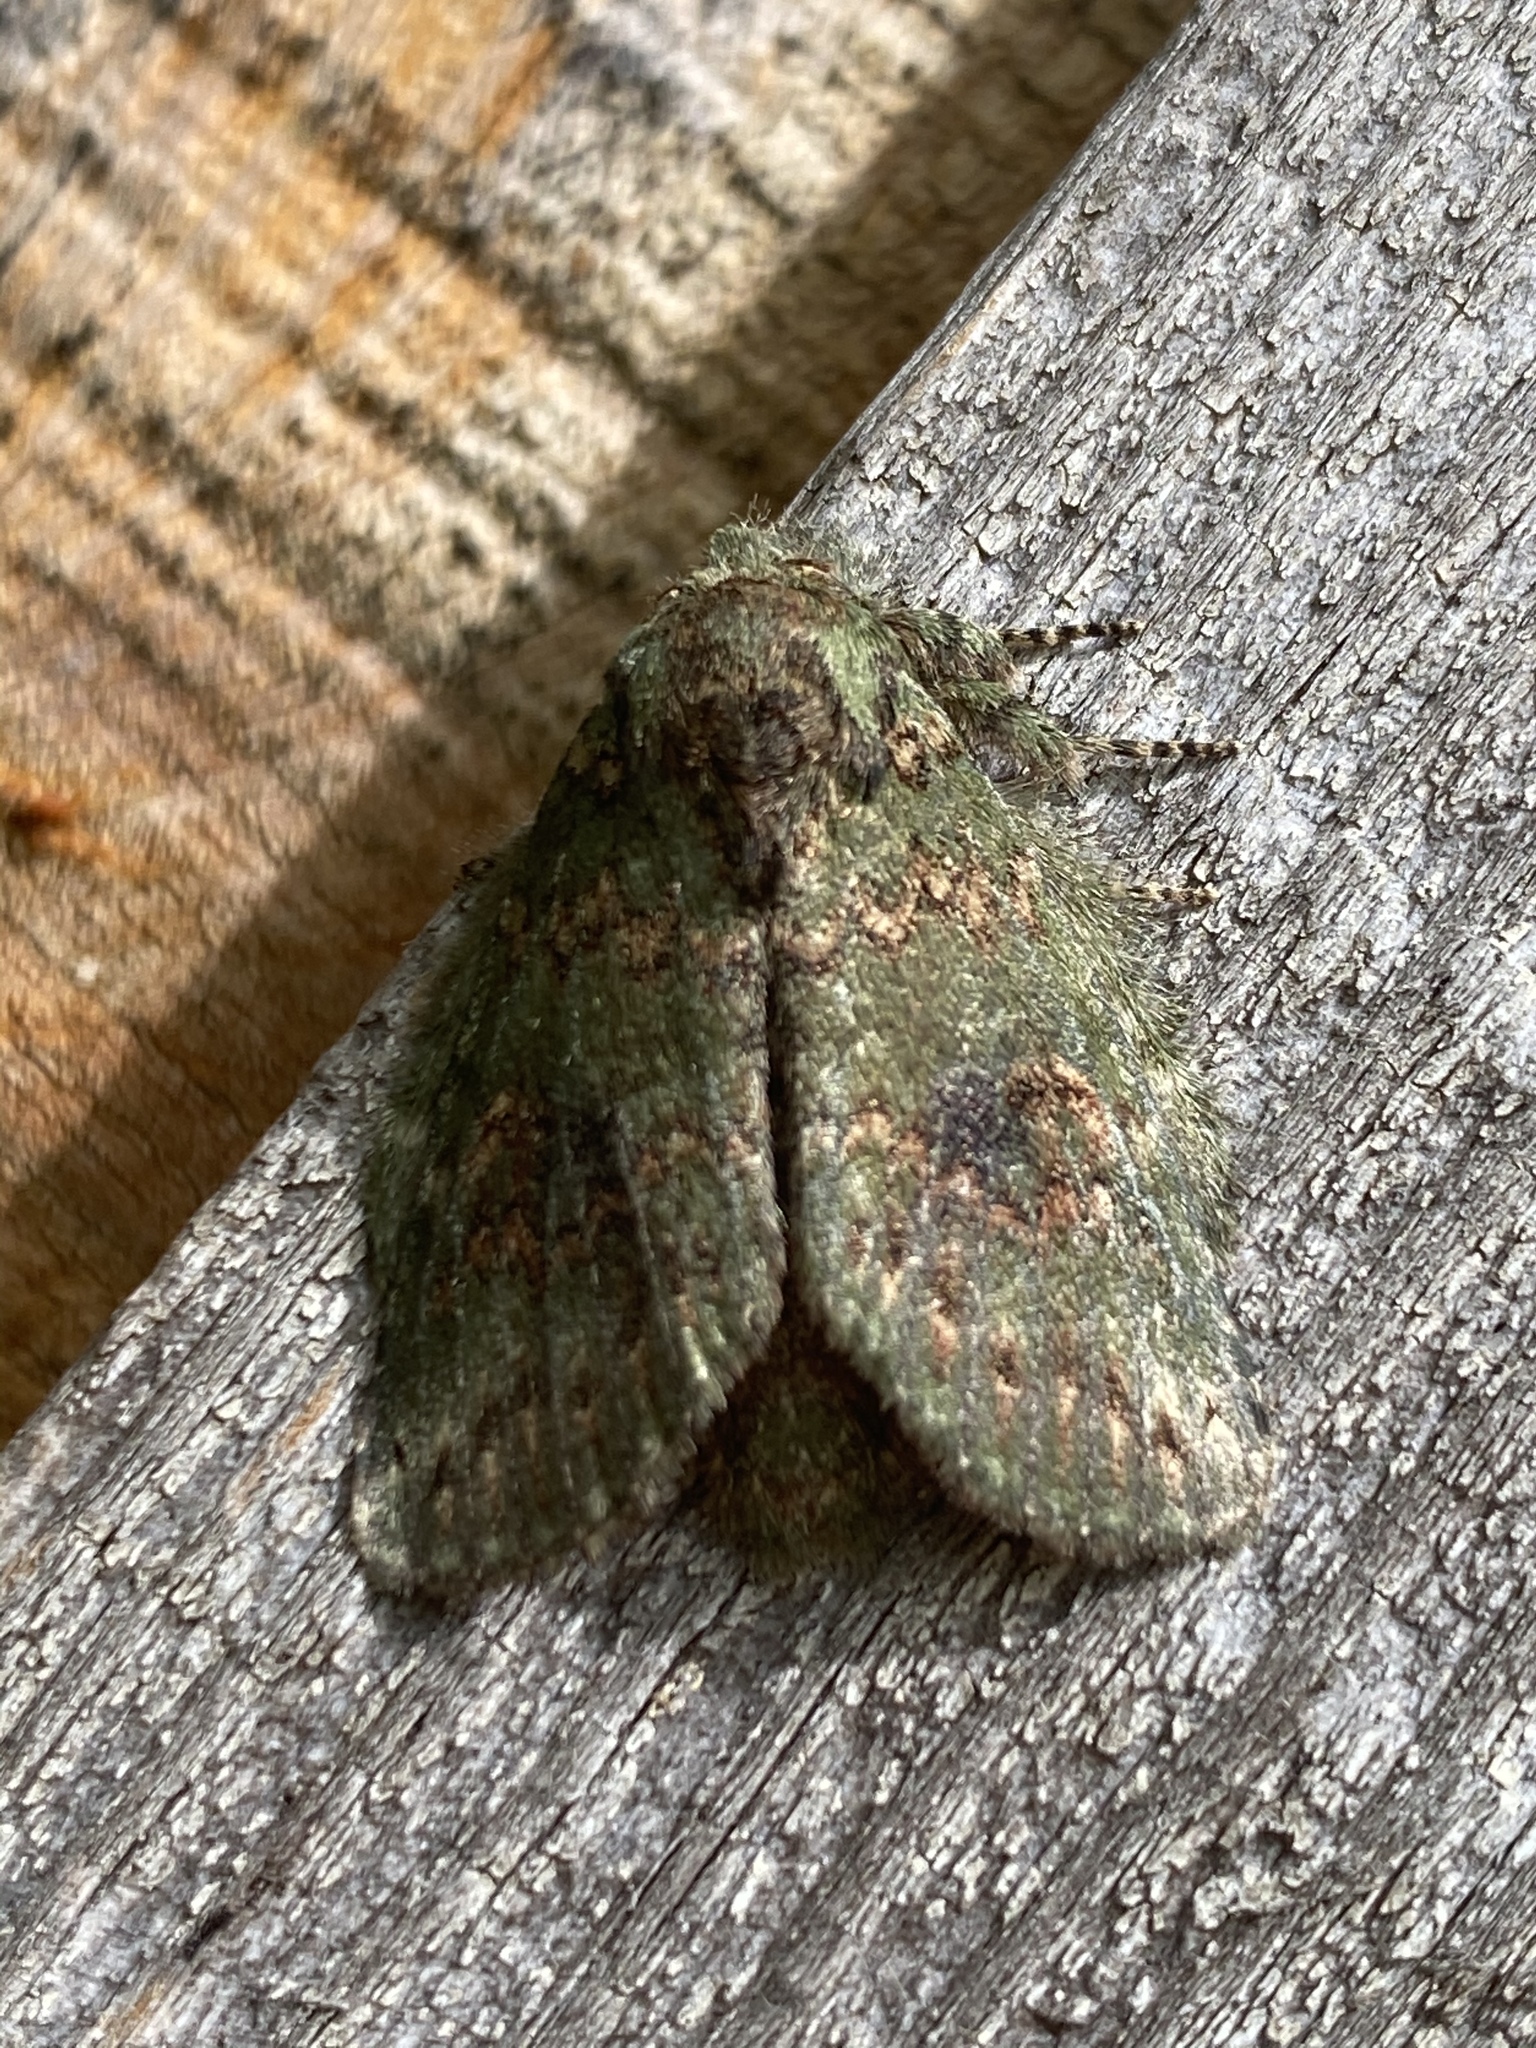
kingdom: Animalia
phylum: Arthropoda
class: Insecta
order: Lepidoptera
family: Notodontidae
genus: Disphragis
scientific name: Disphragis Cecrita biundata
